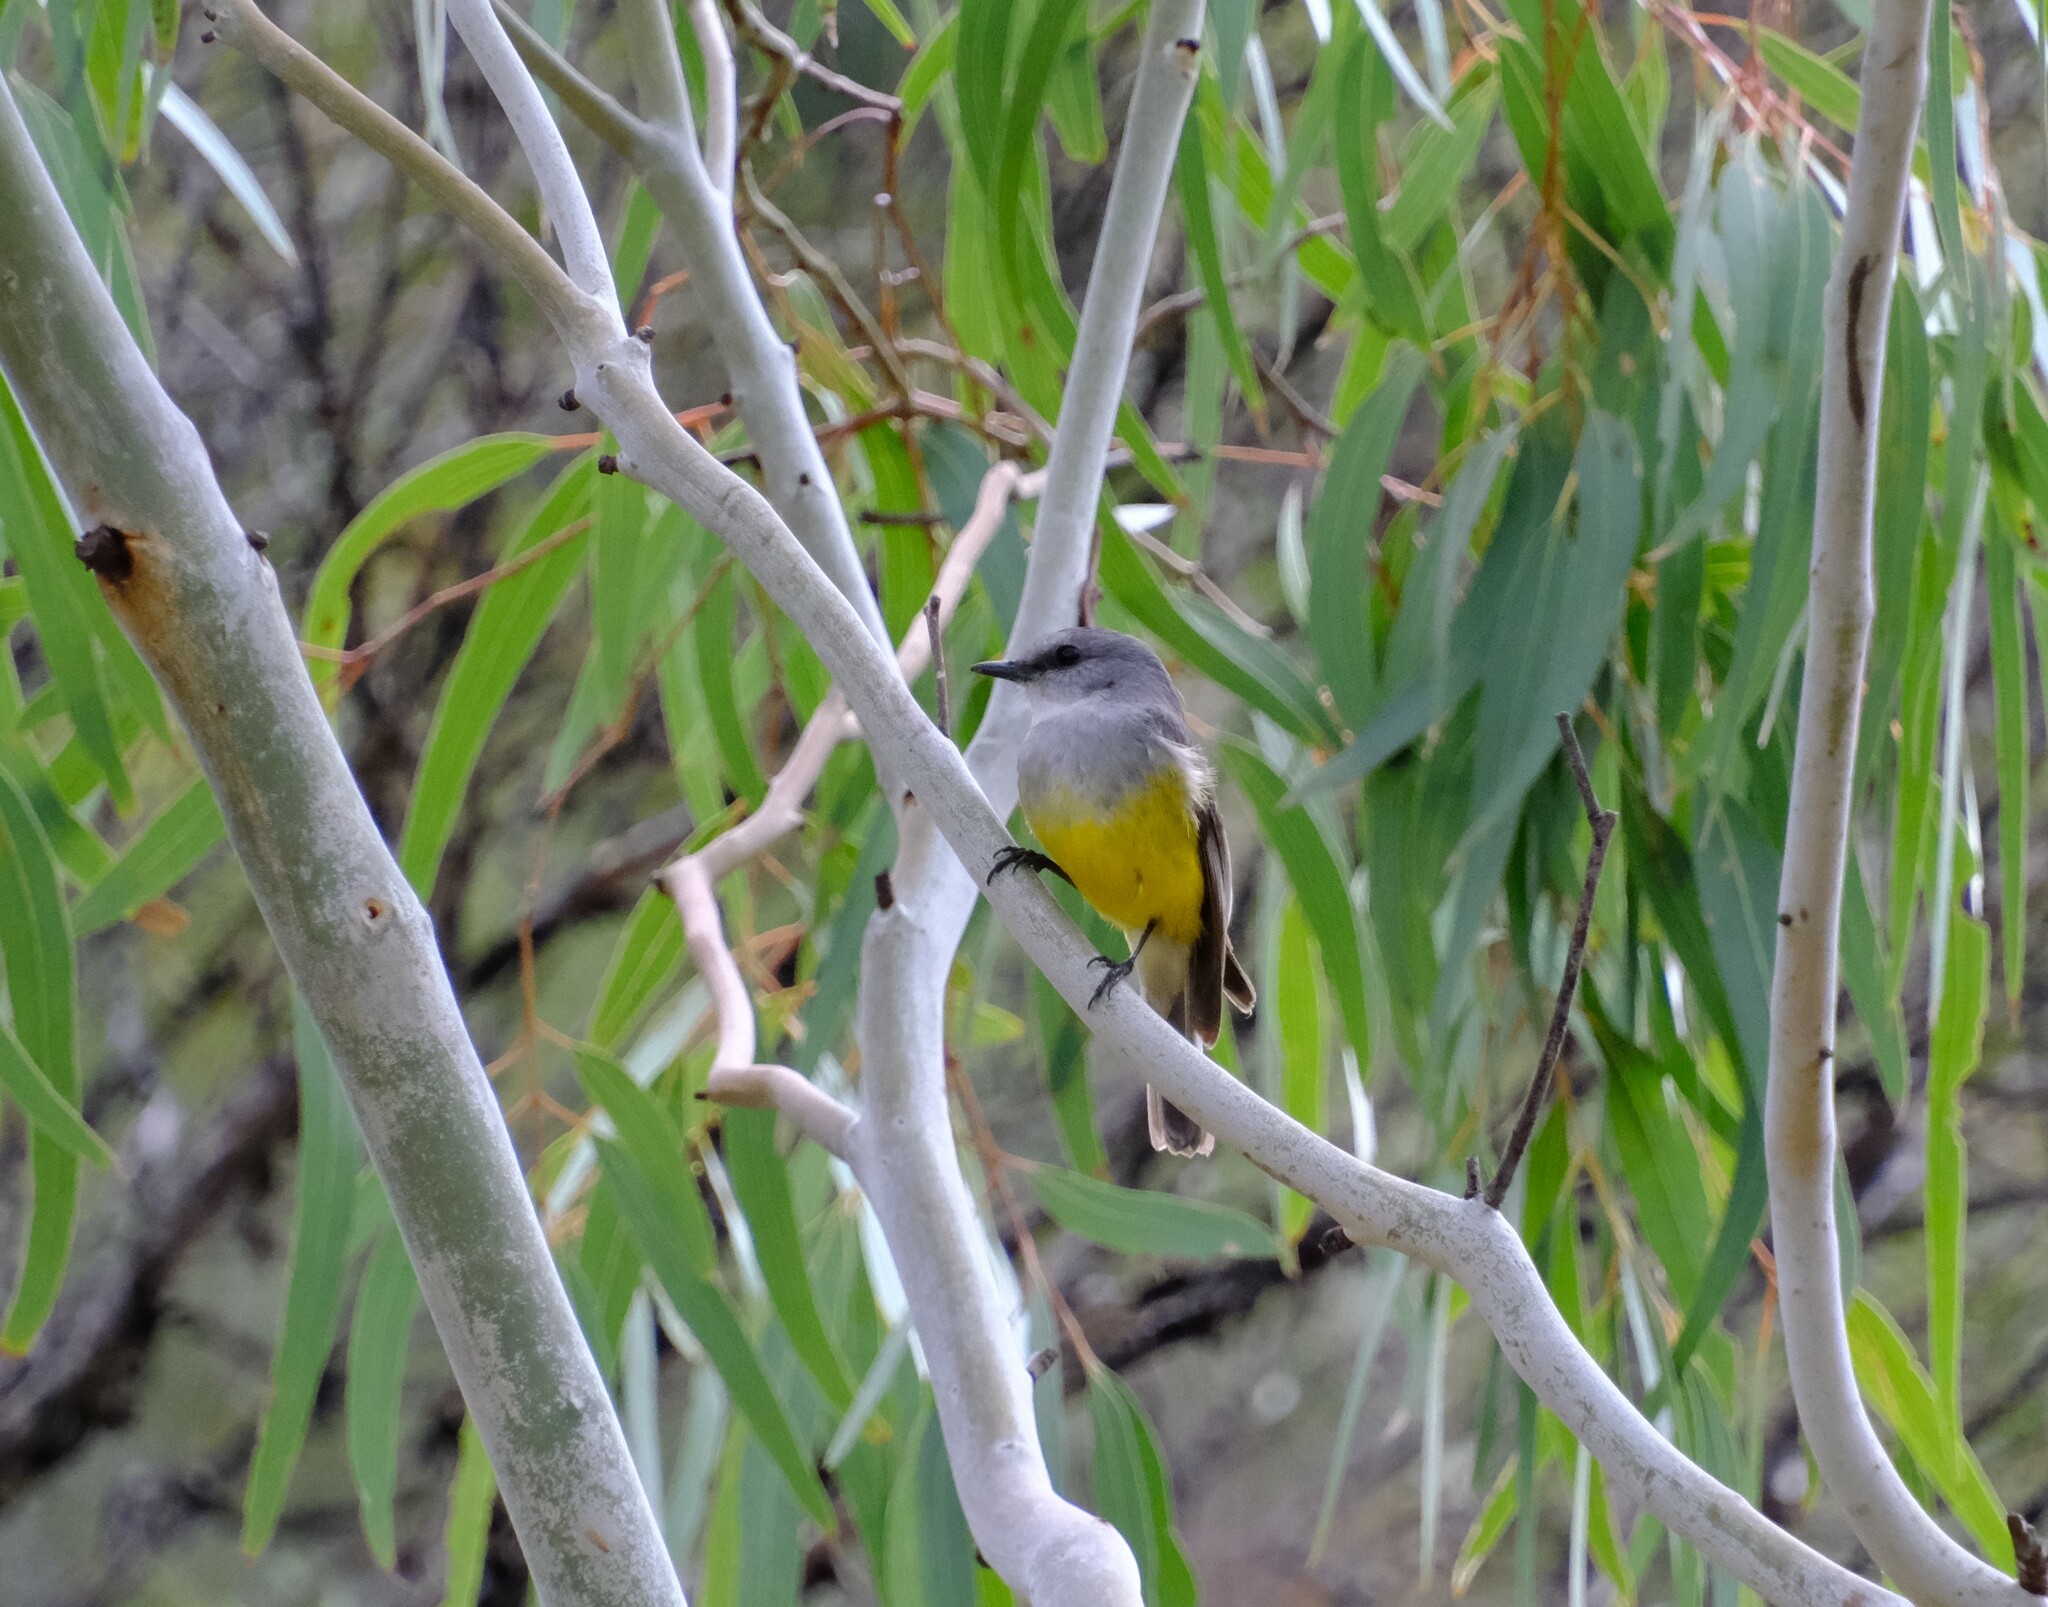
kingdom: Animalia
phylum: Chordata
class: Aves
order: Passeriformes
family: Petroicidae
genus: Eopsaltria
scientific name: Eopsaltria griseogularis
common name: Western yellow robin
